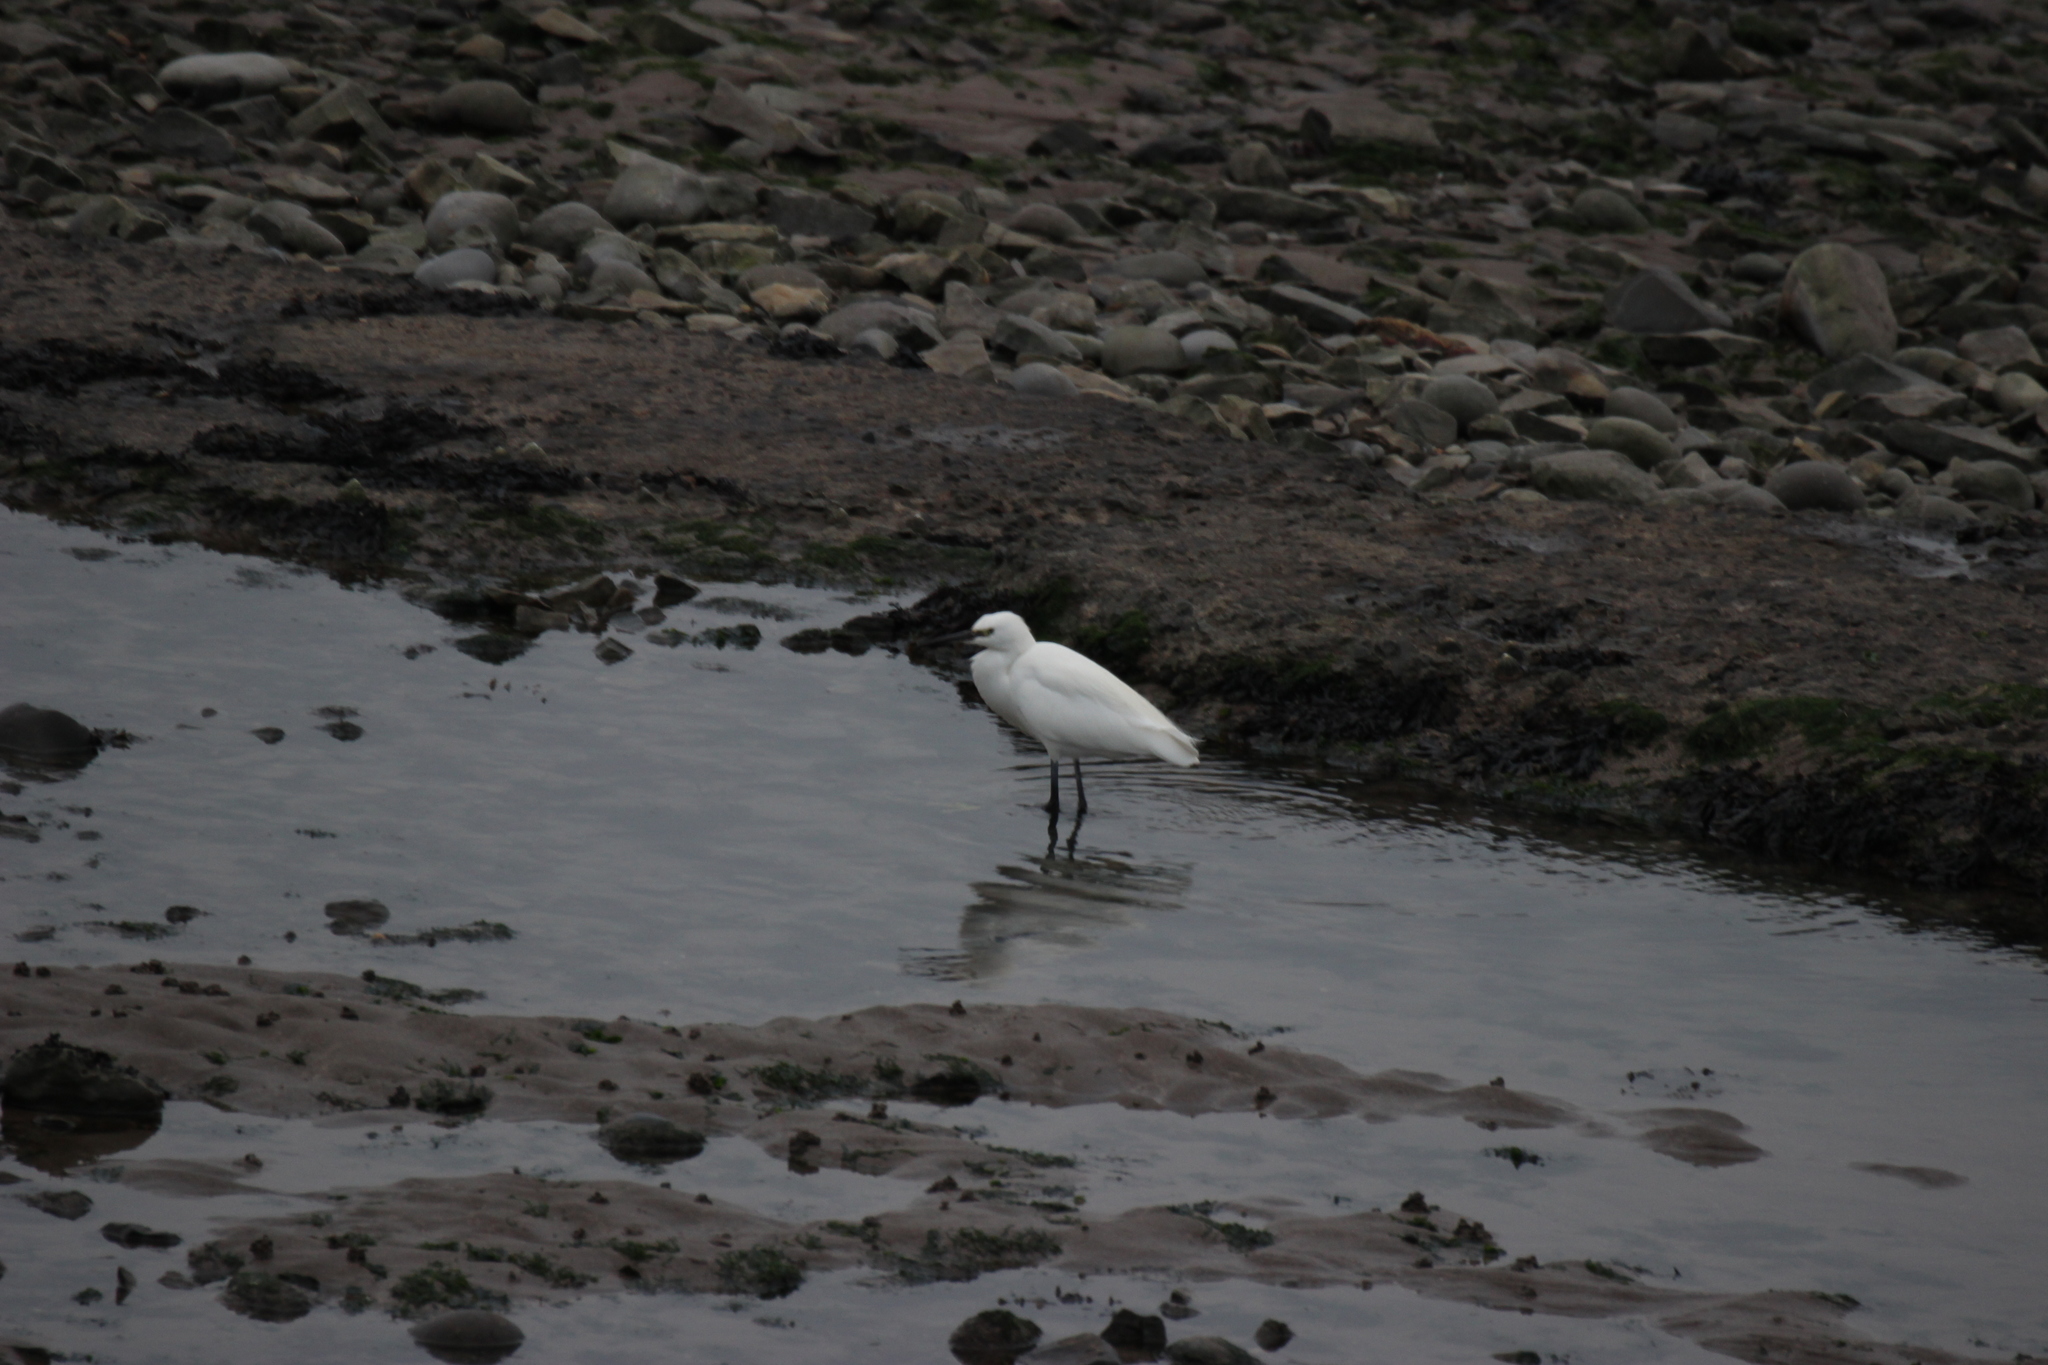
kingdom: Animalia
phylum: Chordata
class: Aves
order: Pelecaniformes
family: Ardeidae
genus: Egretta
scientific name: Egretta garzetta
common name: Little egret
